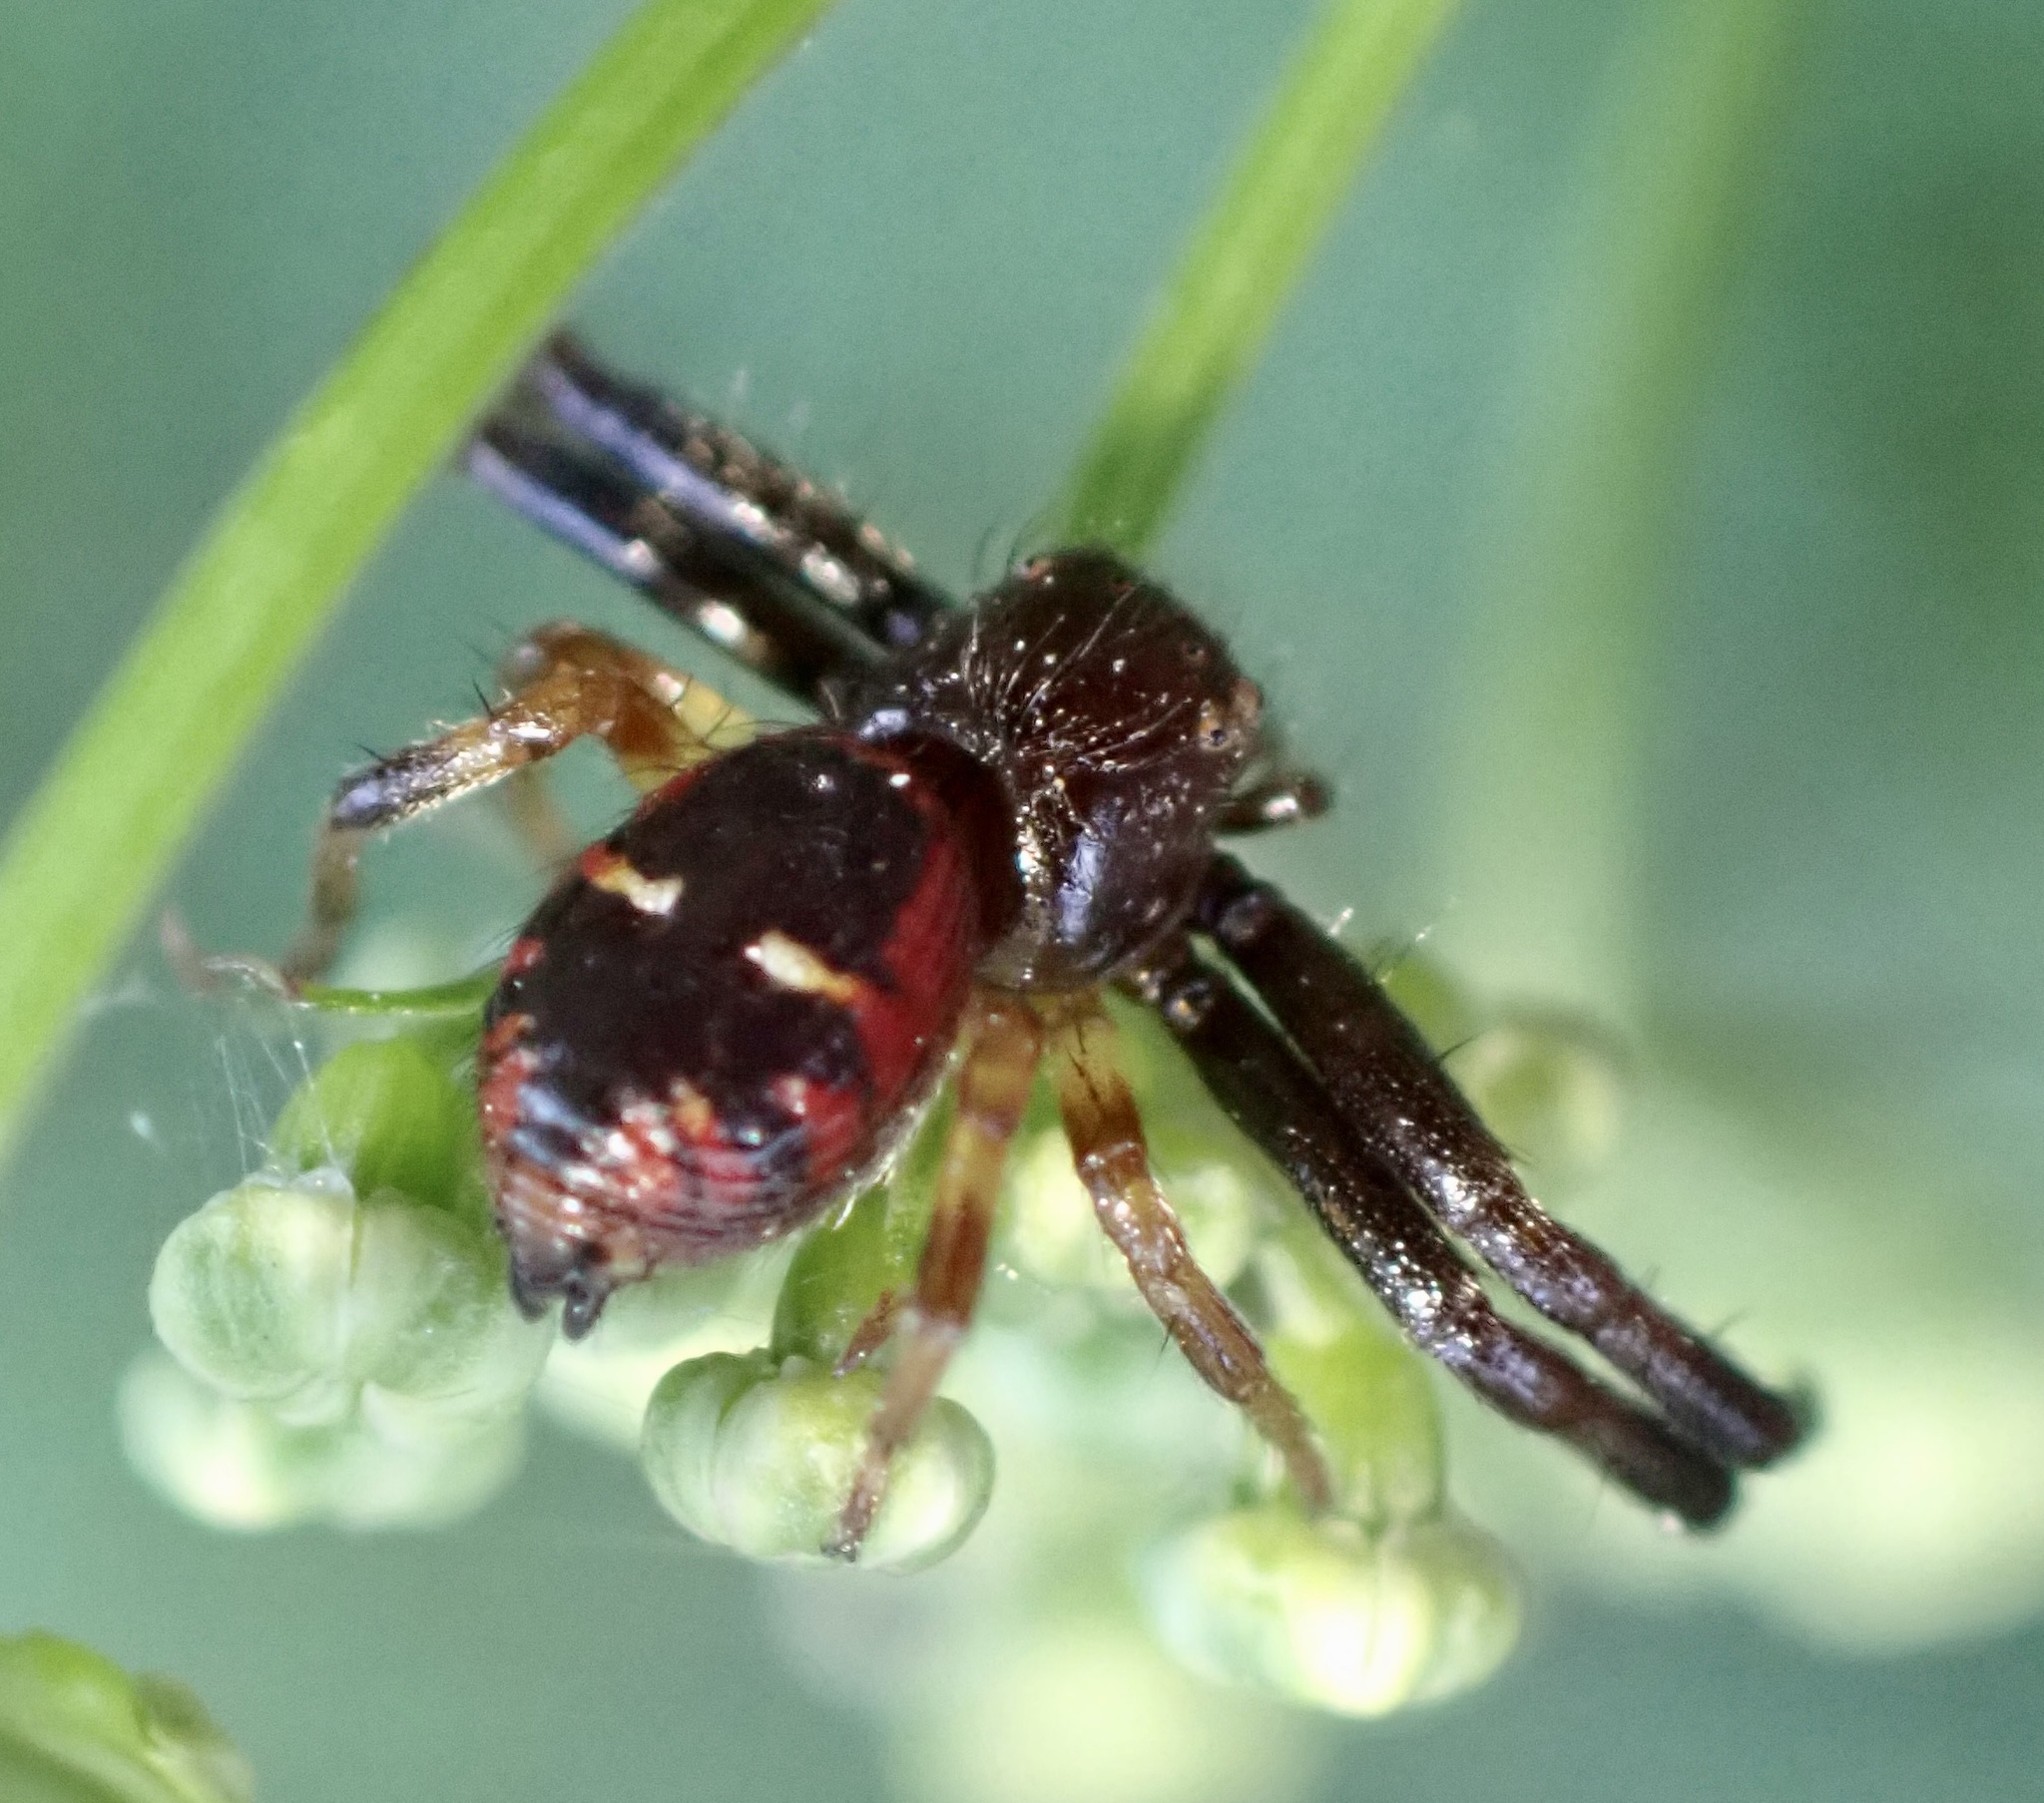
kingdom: Animalia
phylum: Arthropoda
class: Arachnida
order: Araneae
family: Thomisidae
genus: Synema
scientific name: Synema globosum
